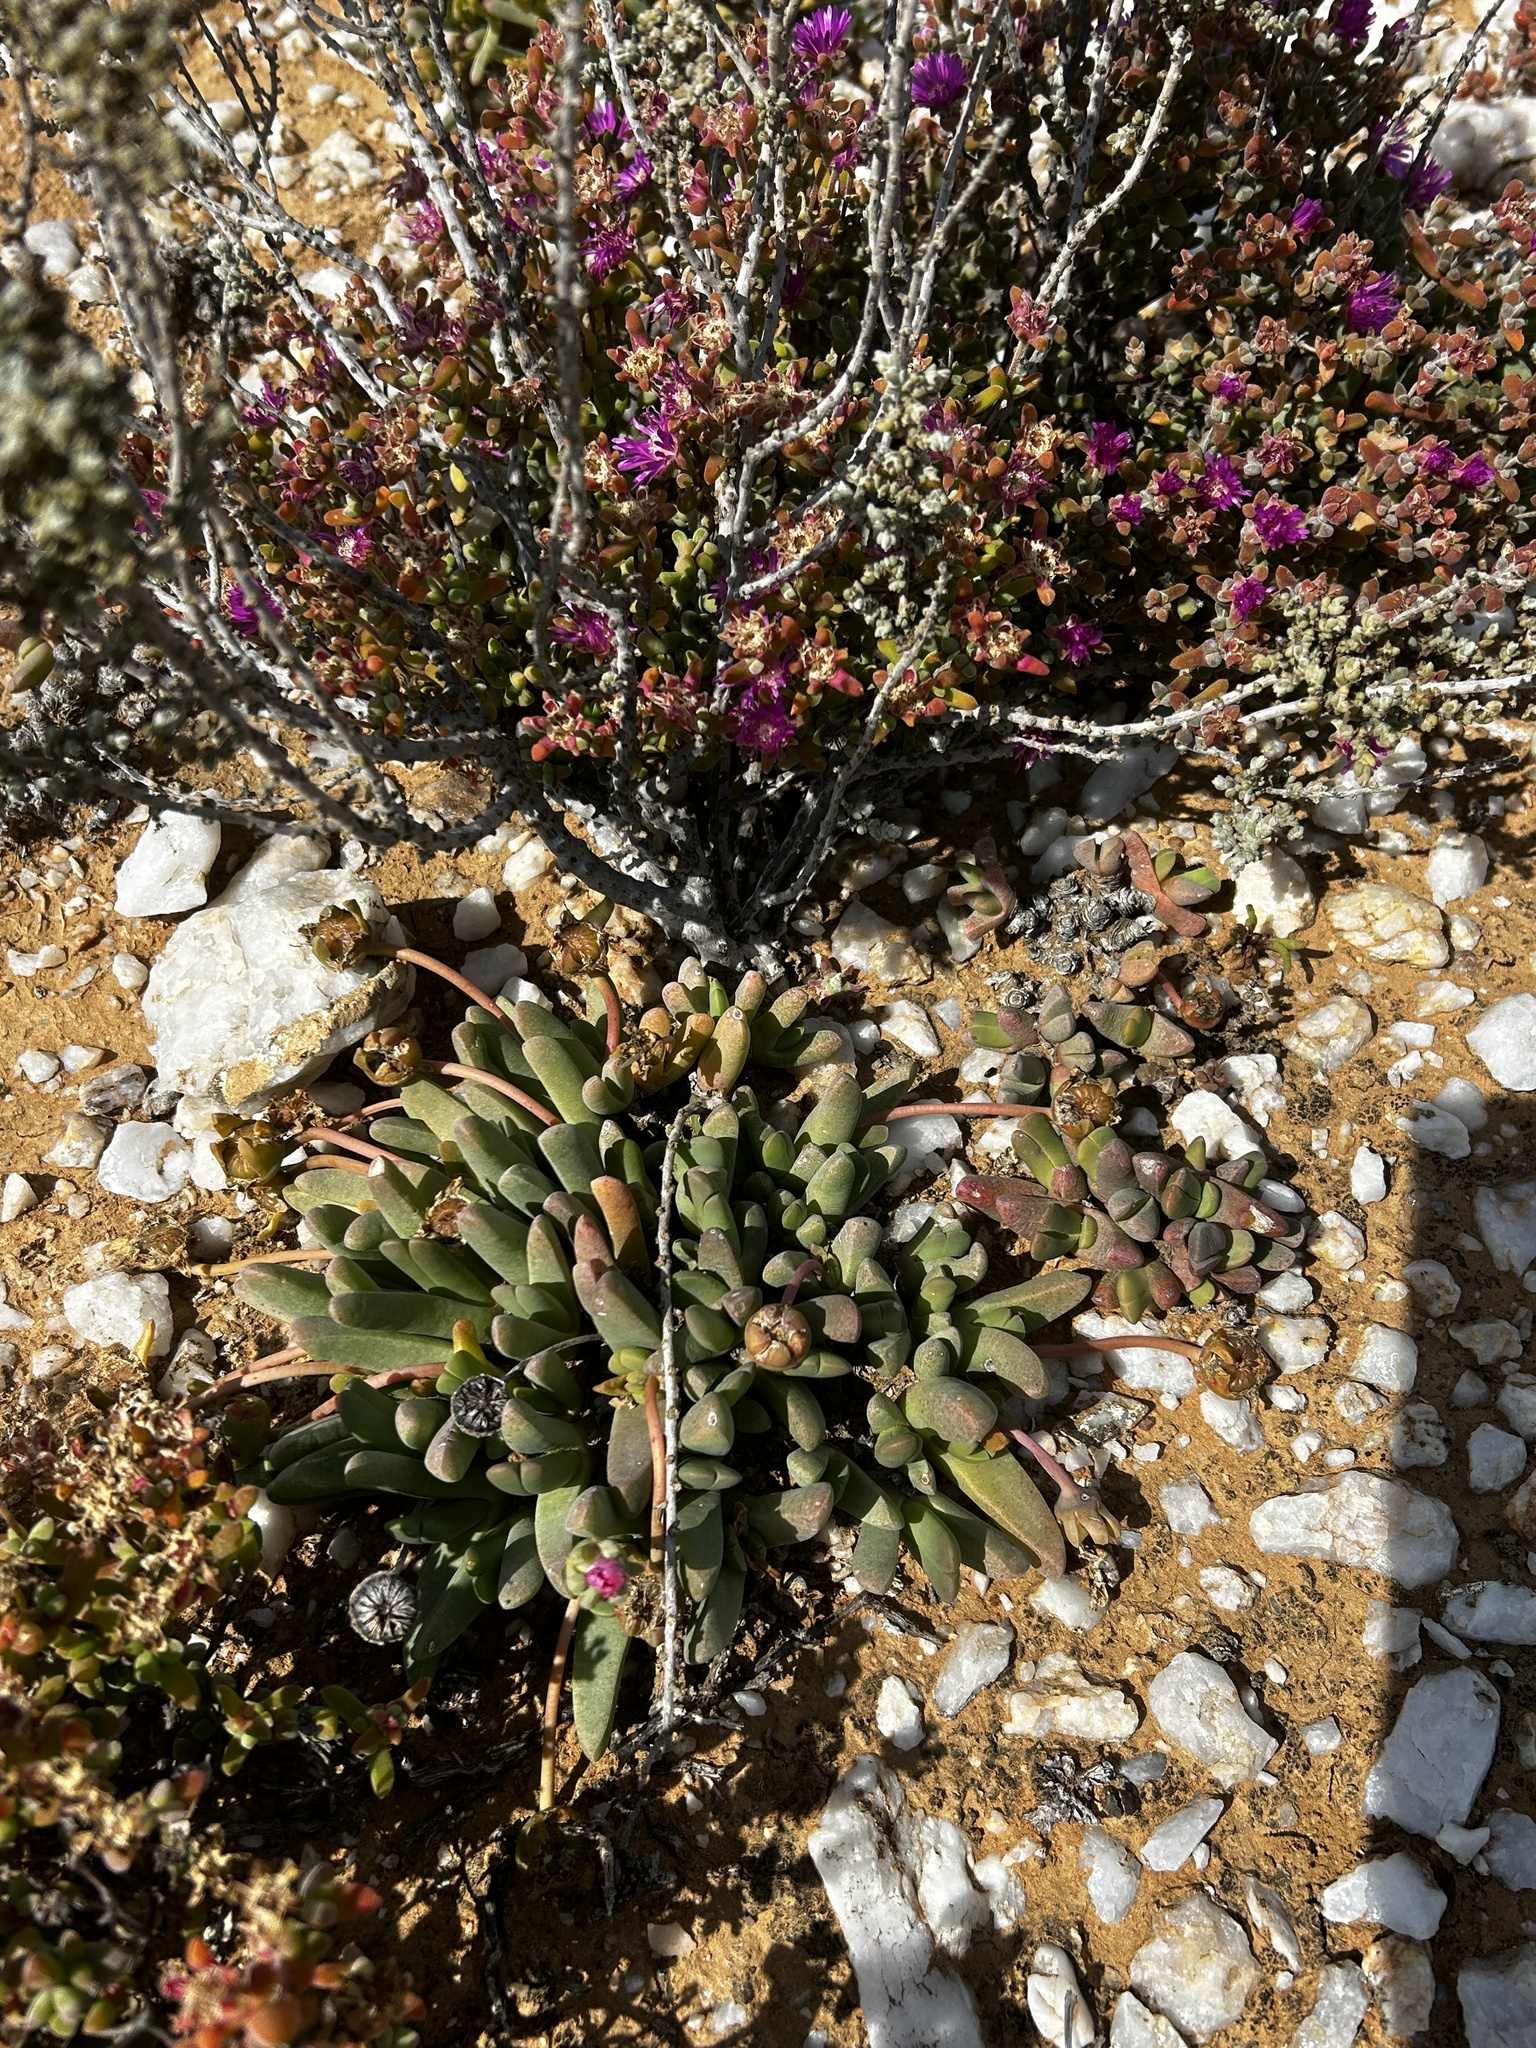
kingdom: Plantae
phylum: Tracheophyta
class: Magnoliopsida
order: Caryophyllales
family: Aizoaceae
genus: Cephalophyllum
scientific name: Cephalophyllum spissum
